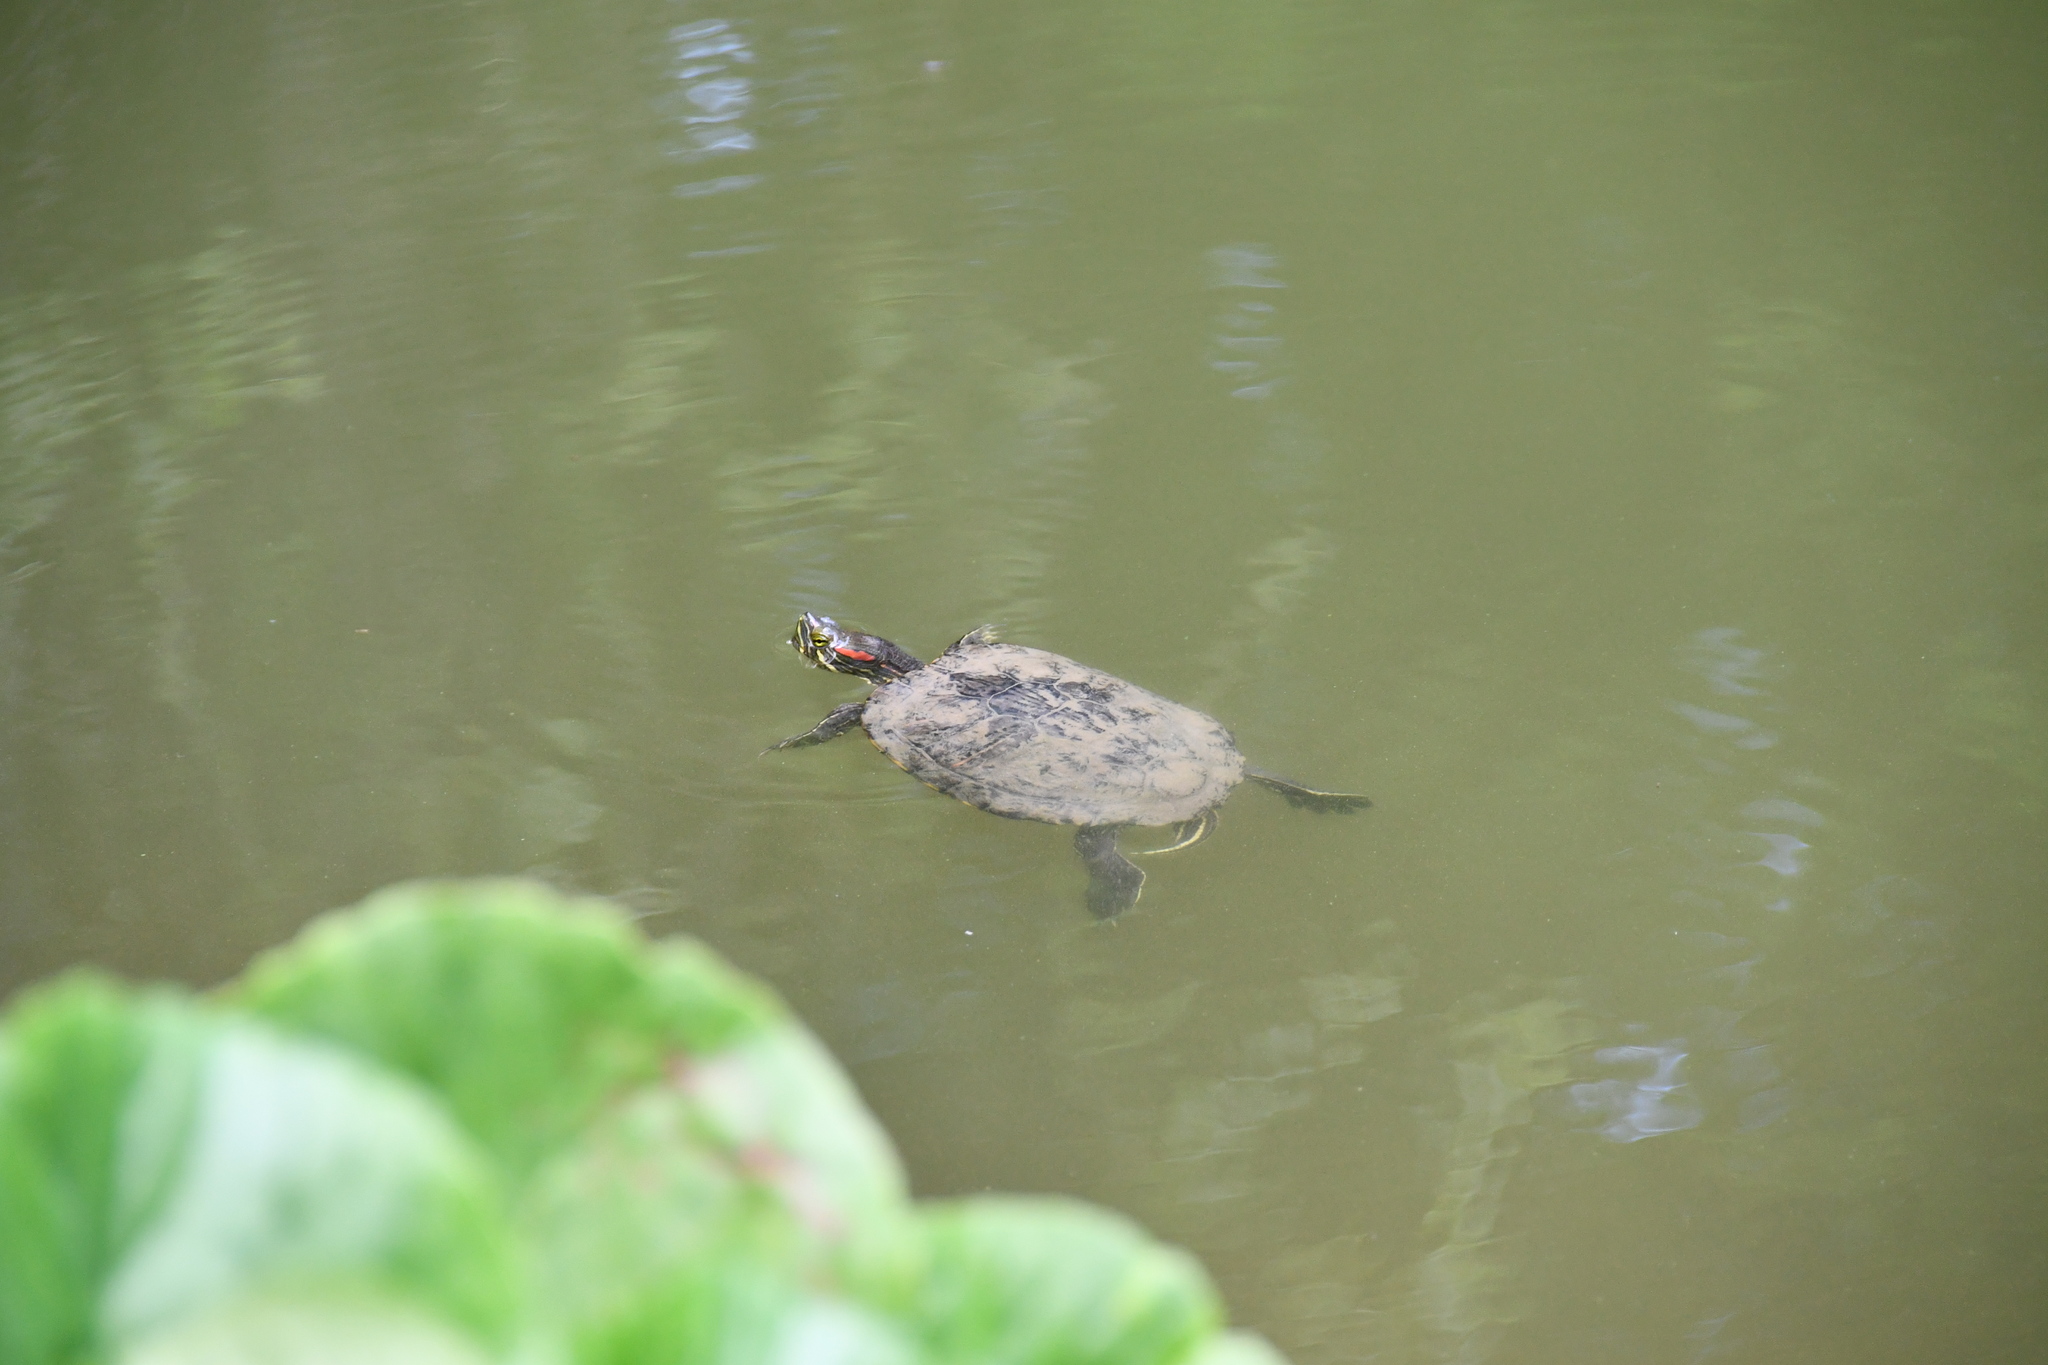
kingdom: Animalia
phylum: Chordata
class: Testudines
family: Emydidae
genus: Trachemys
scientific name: Trachemys scripta
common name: Slider
